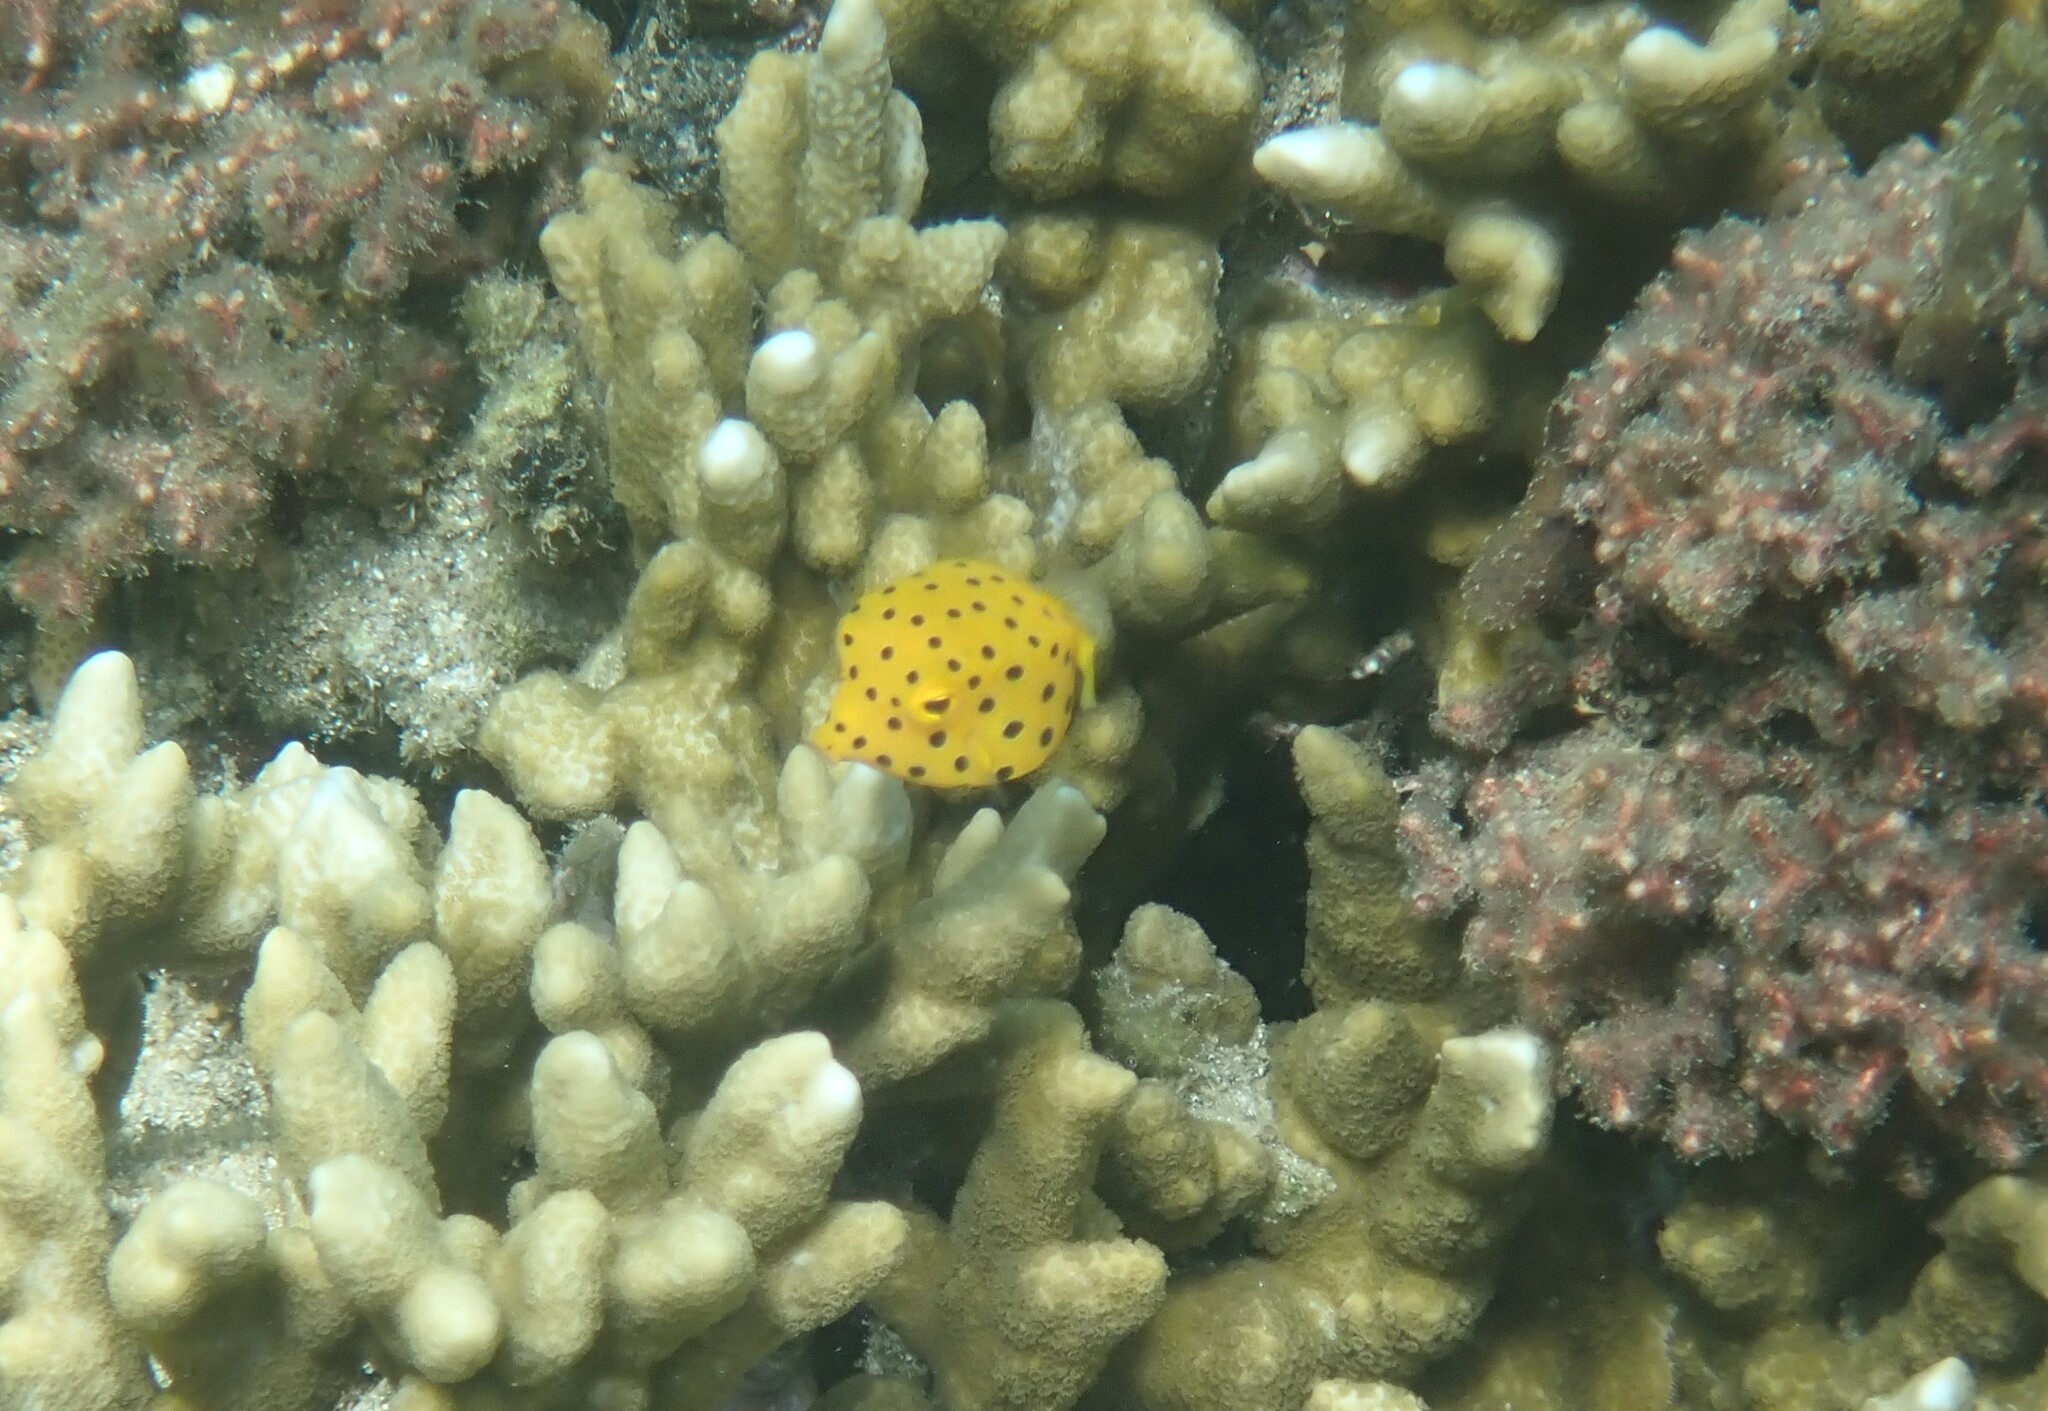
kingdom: Animalia
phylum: Chordata
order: Tetraodontiformes
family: Ostraciidae
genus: Ostracion
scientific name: Ostracion cubicus
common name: Cube trunkfish
